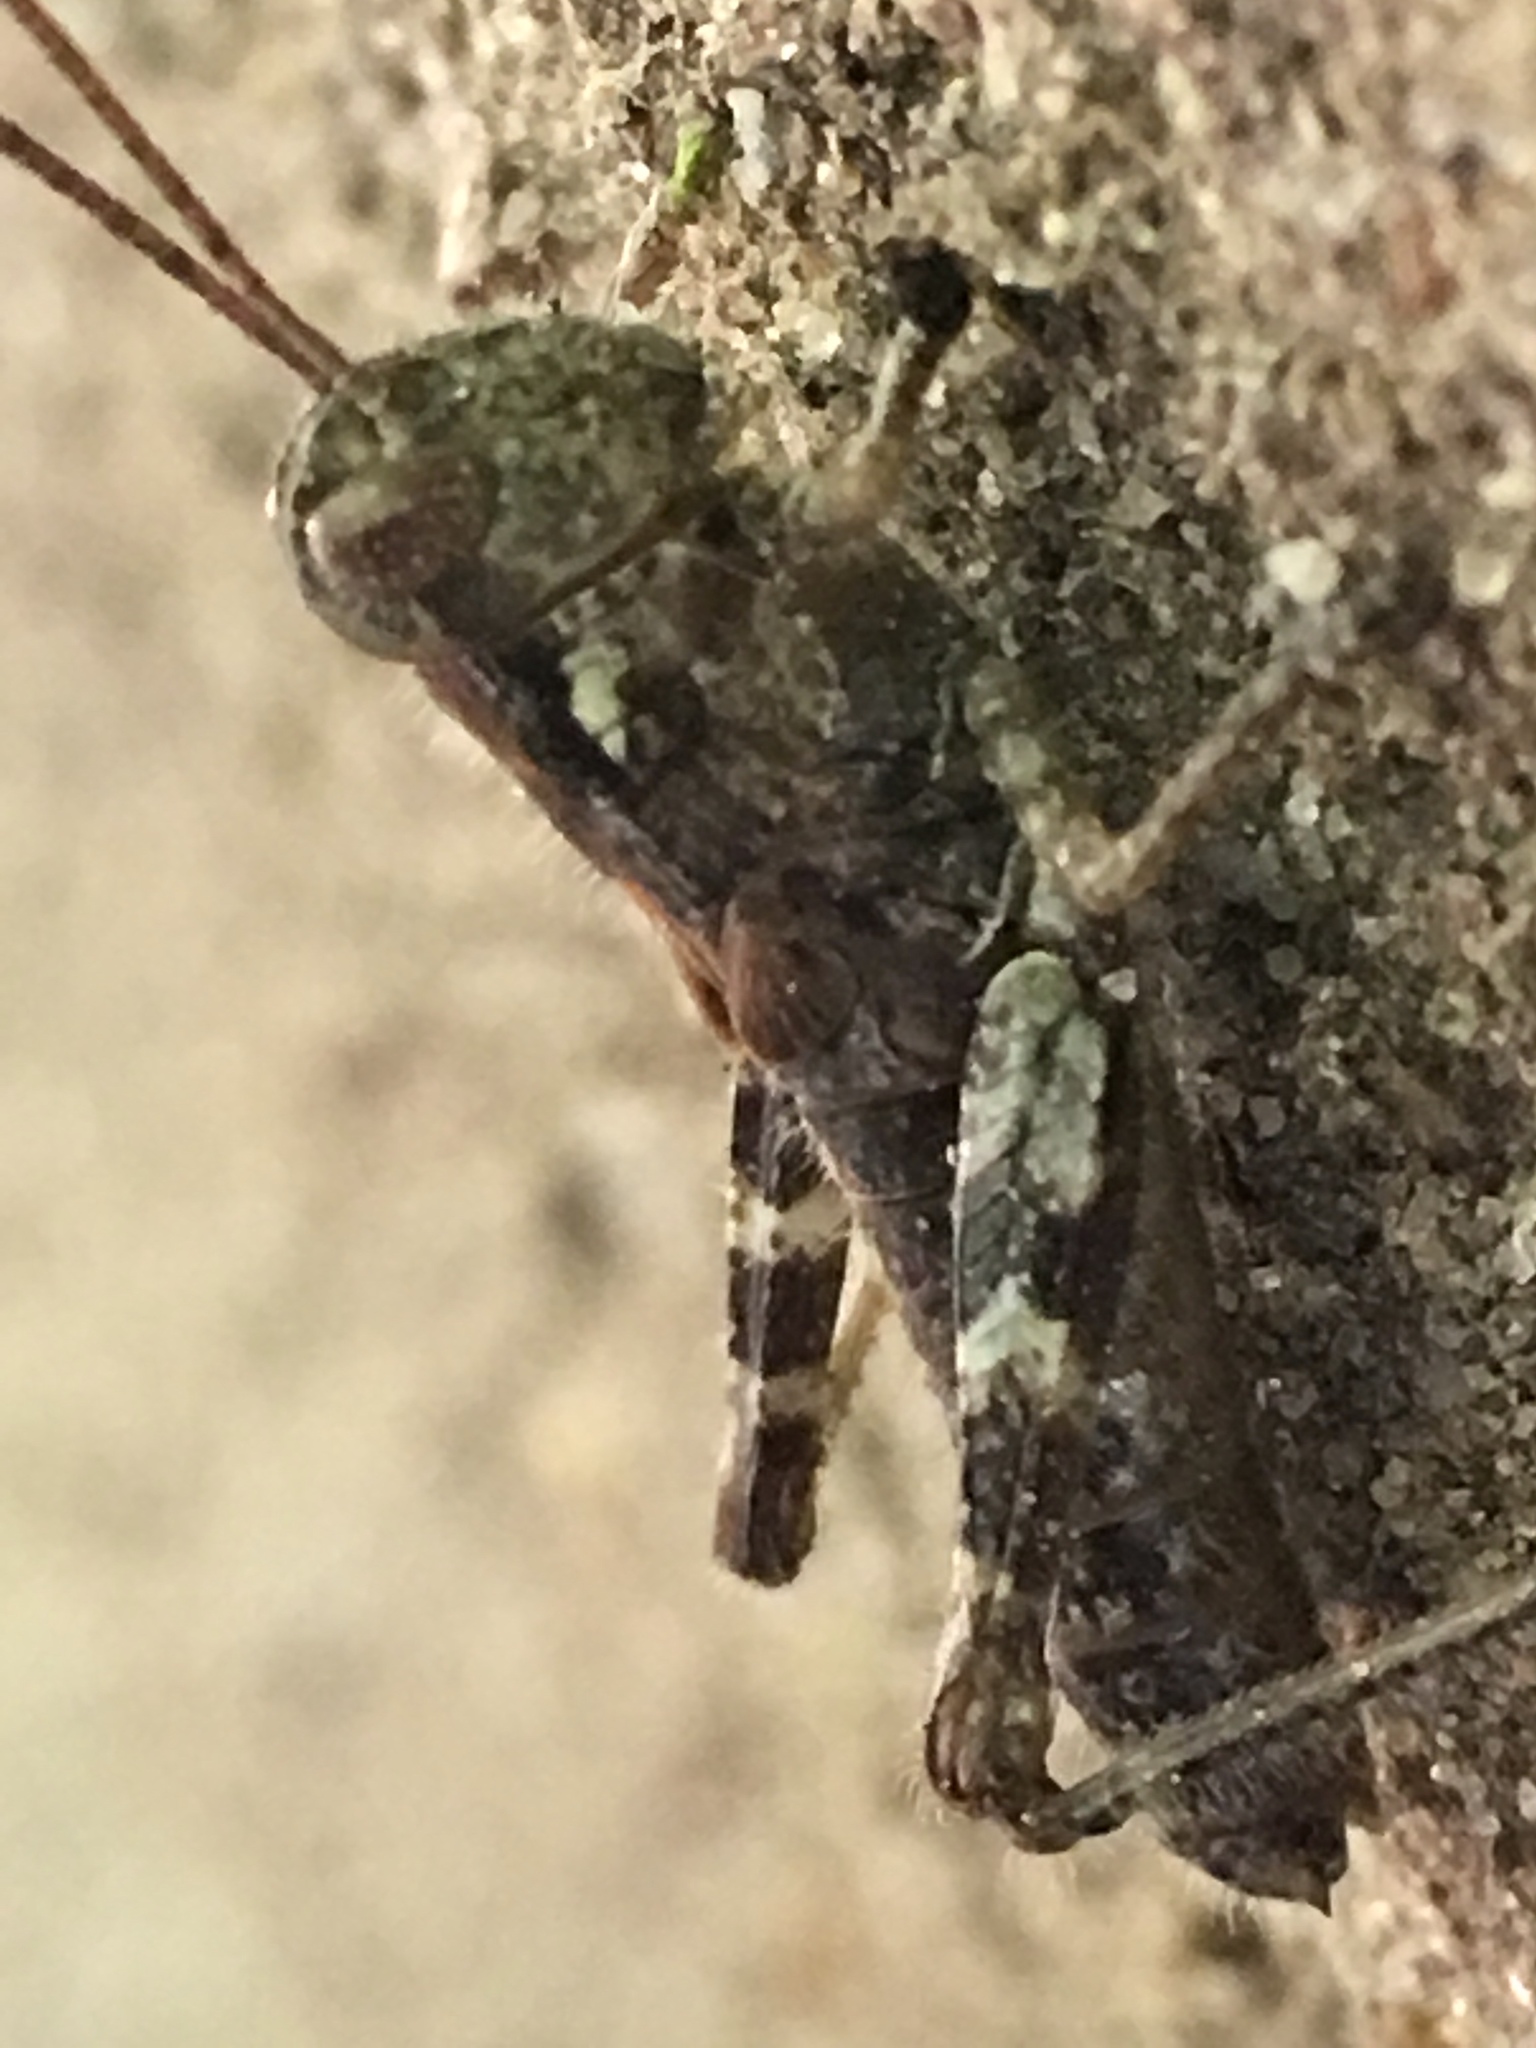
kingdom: Animalia
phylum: Arthropoda
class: Insecta
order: Orthoptera
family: Acrididae
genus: Melanoplus
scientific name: Melanoplus punctulatus
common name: Pine-tree spur-throat grasshopper
